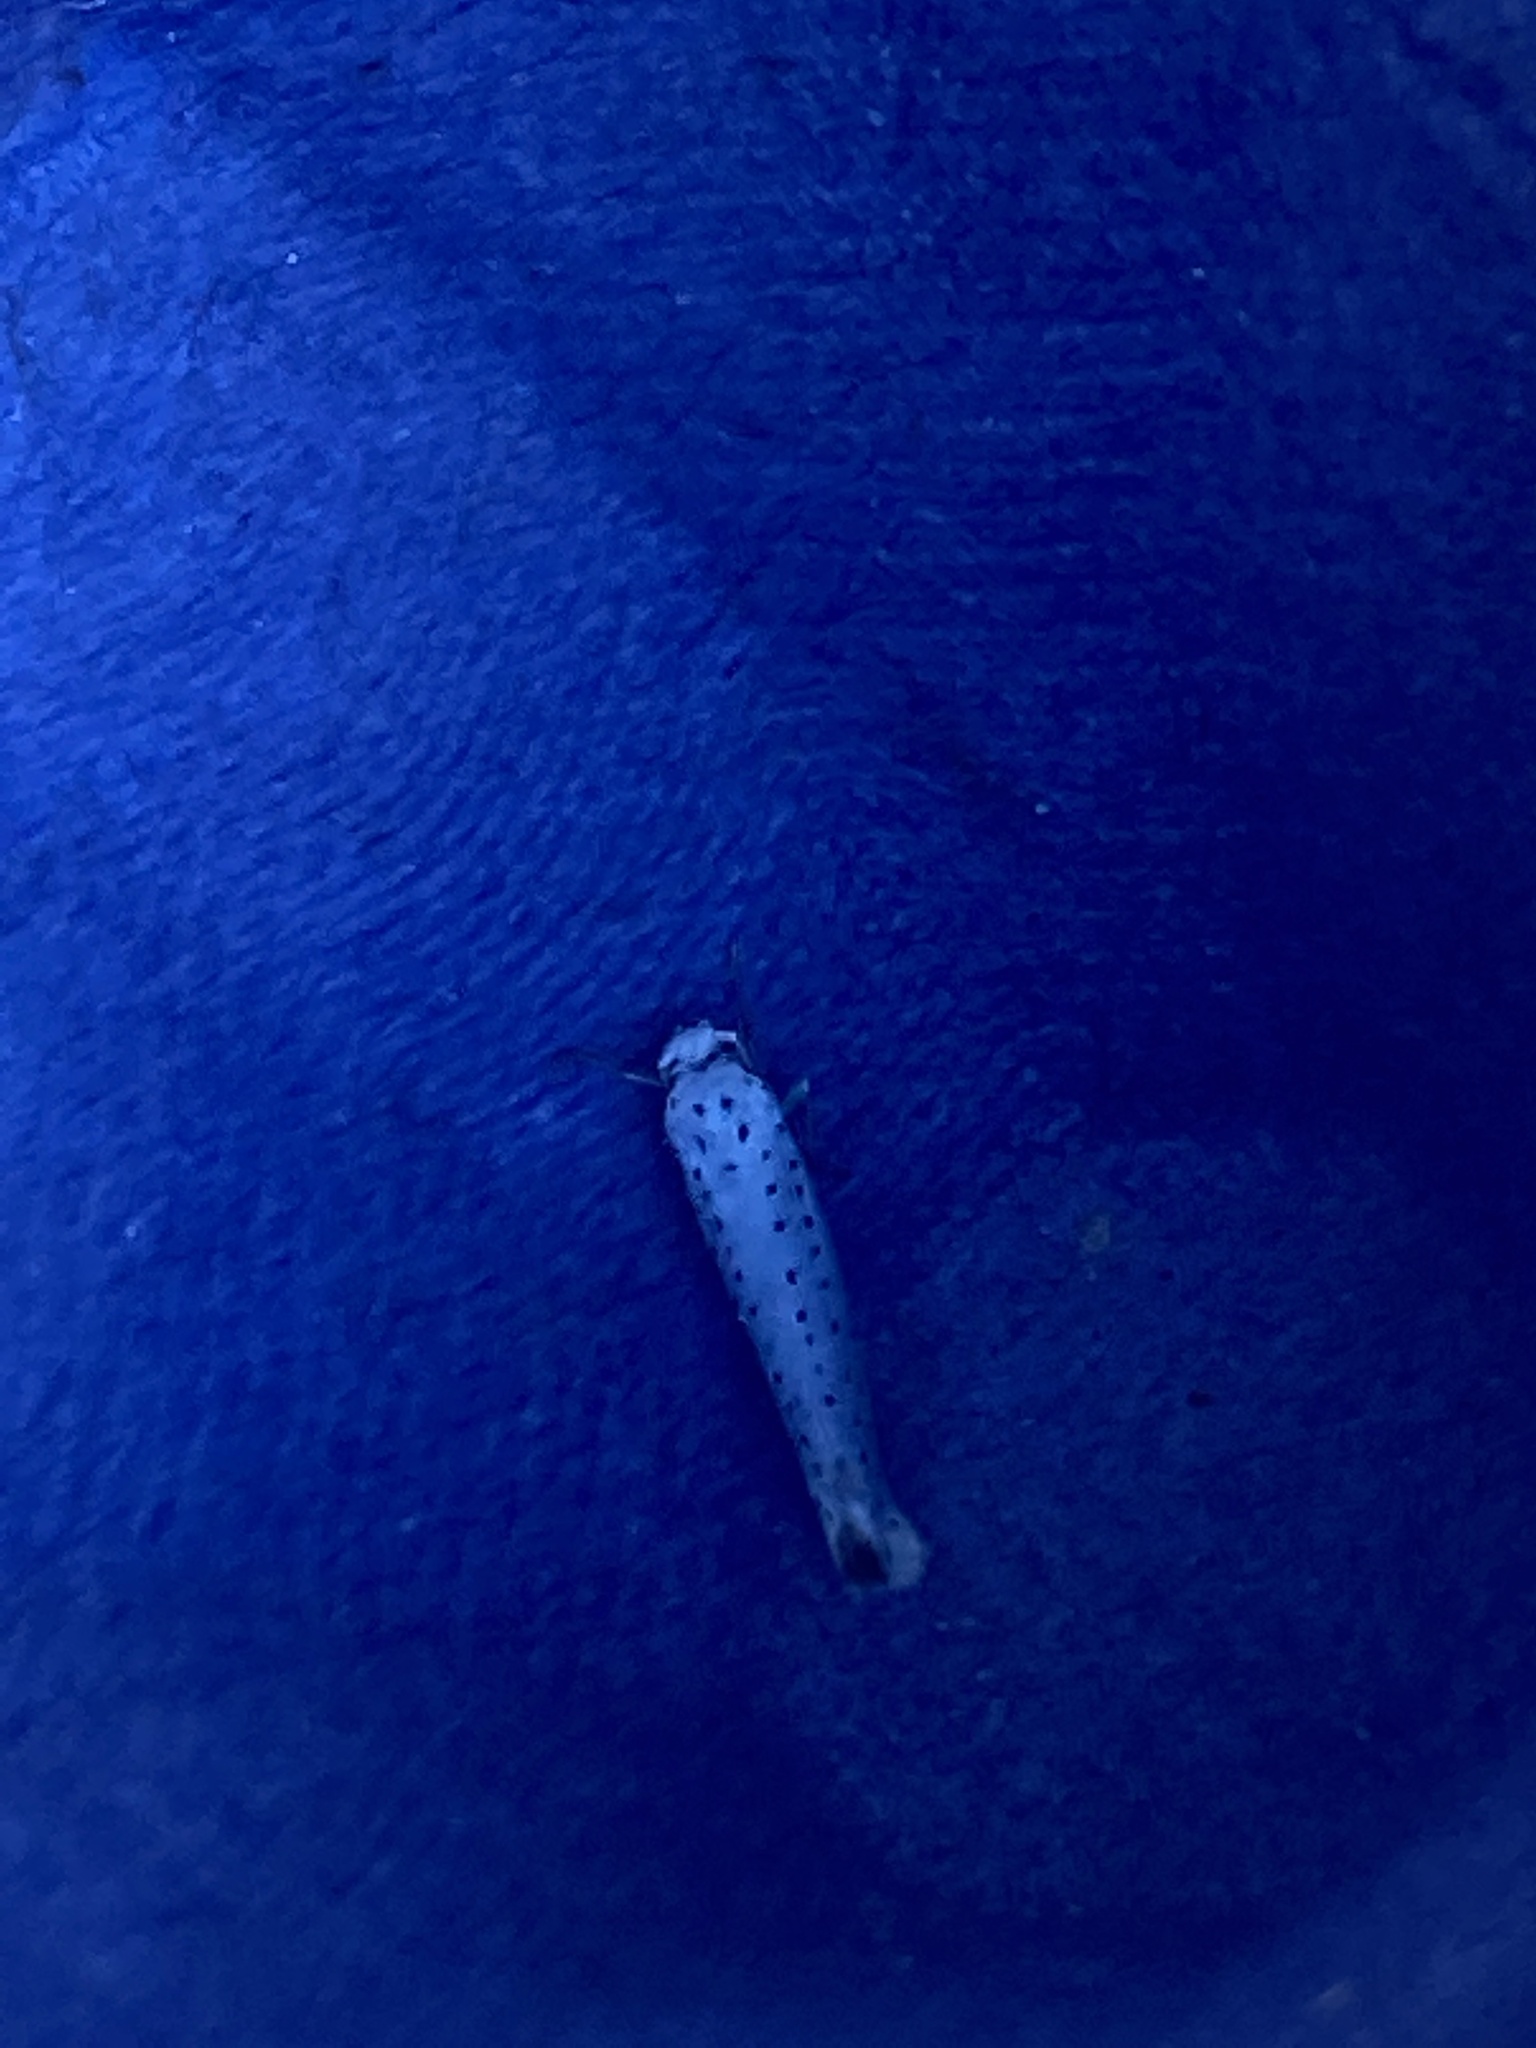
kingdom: Animalia
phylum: Arthropoda
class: Insecta
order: Lepidoptera
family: Yponomeutidae
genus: Yponomeuta
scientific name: Yponomeuta evonymella
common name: Bird-cherry ermine
